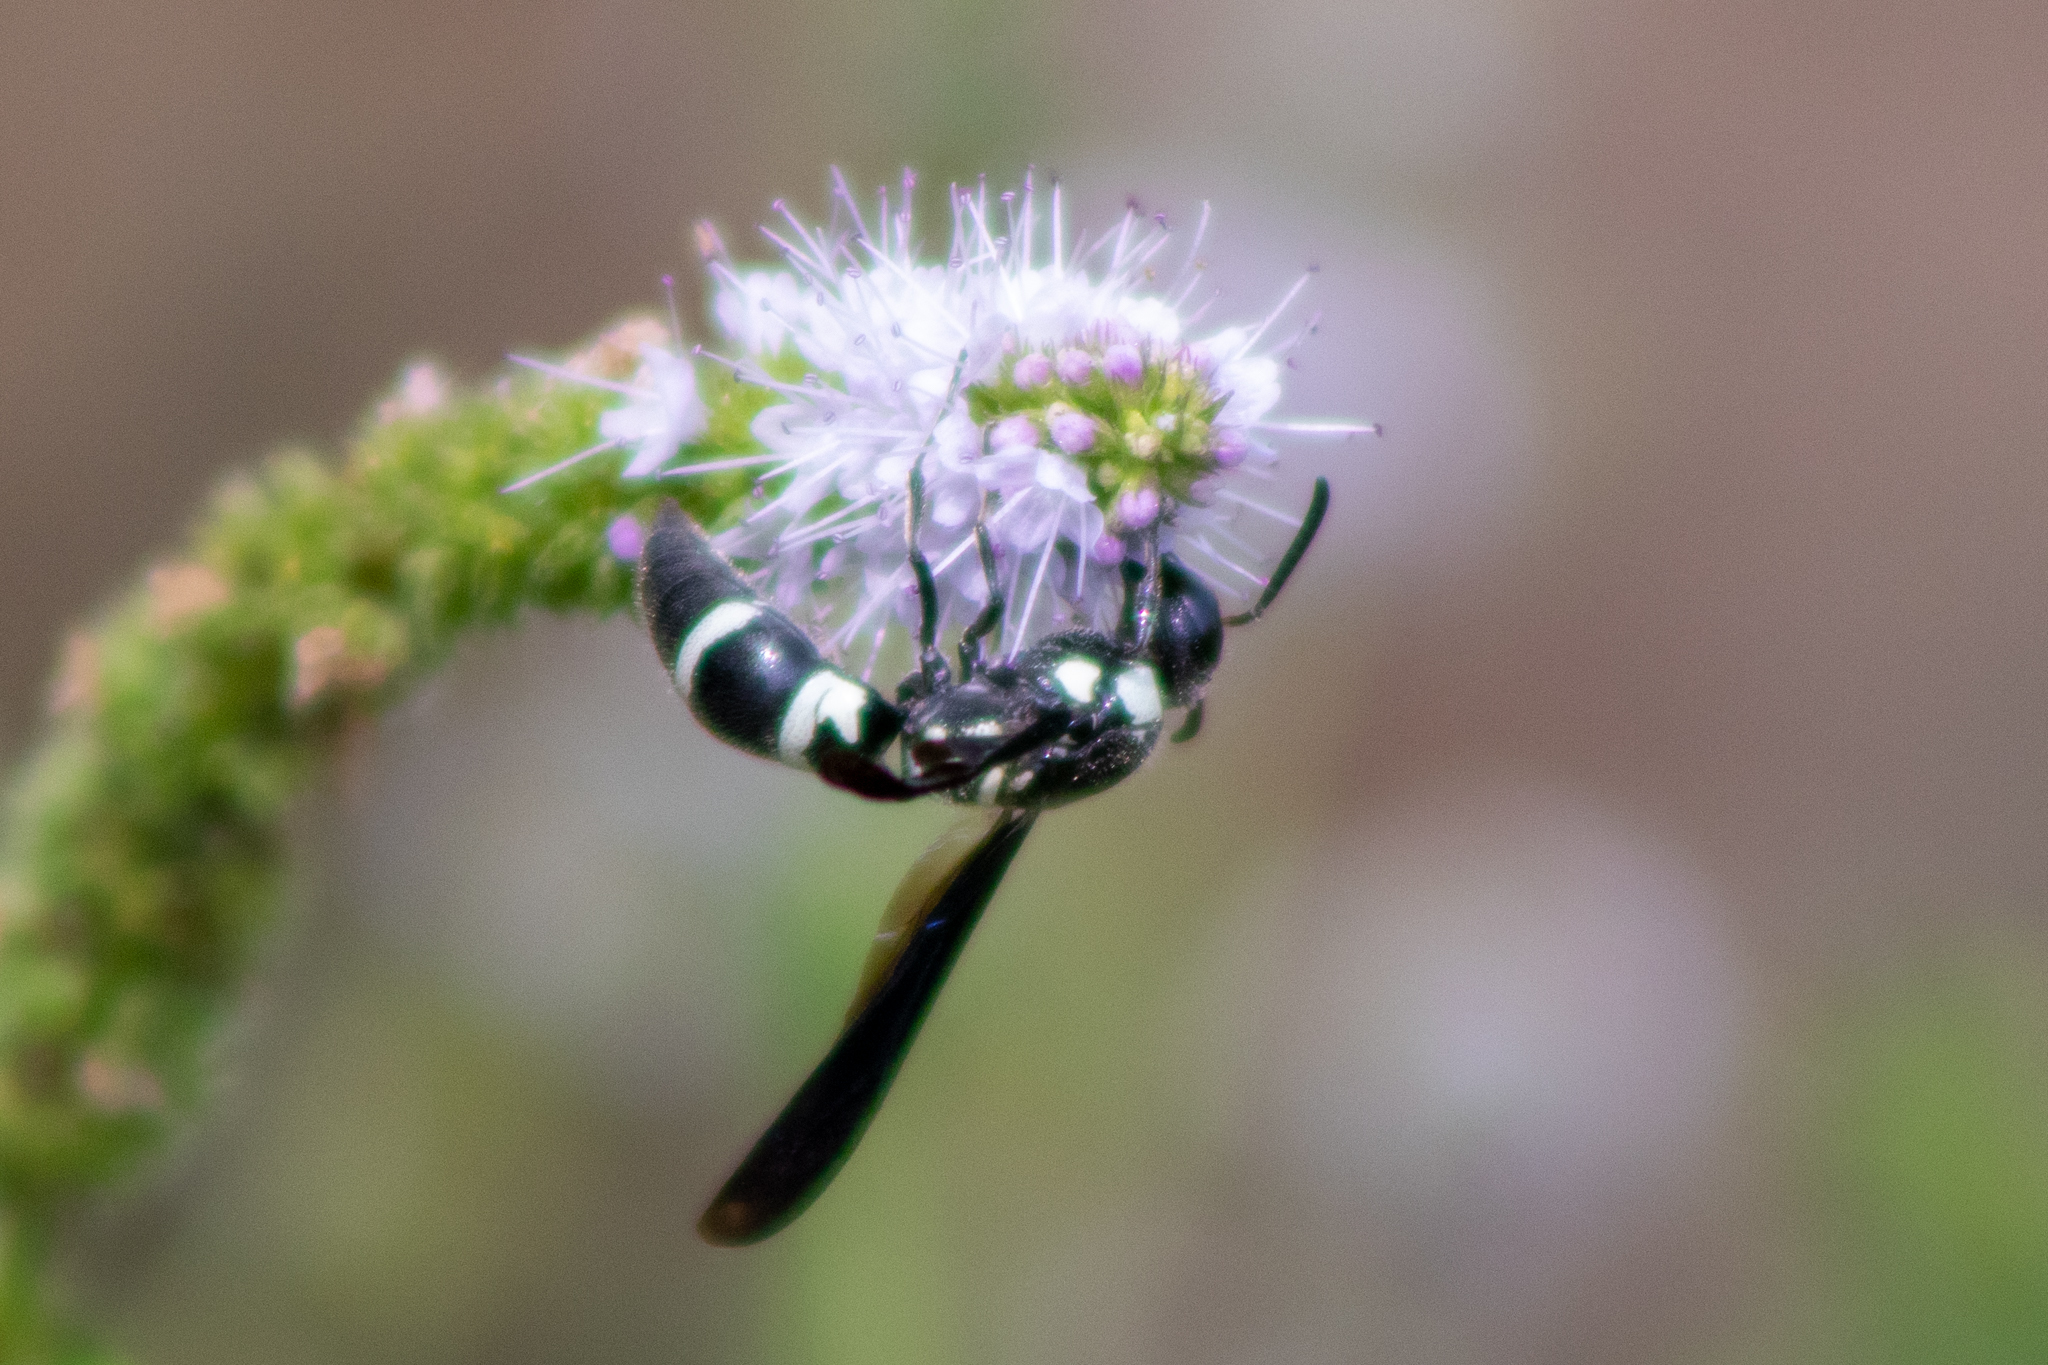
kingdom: Animalia
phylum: Arthropoda
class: Insecta
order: Hymenoptera
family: Eumenidae
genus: Pseudodynerus
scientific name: Pseudodynerus quadrisectus
